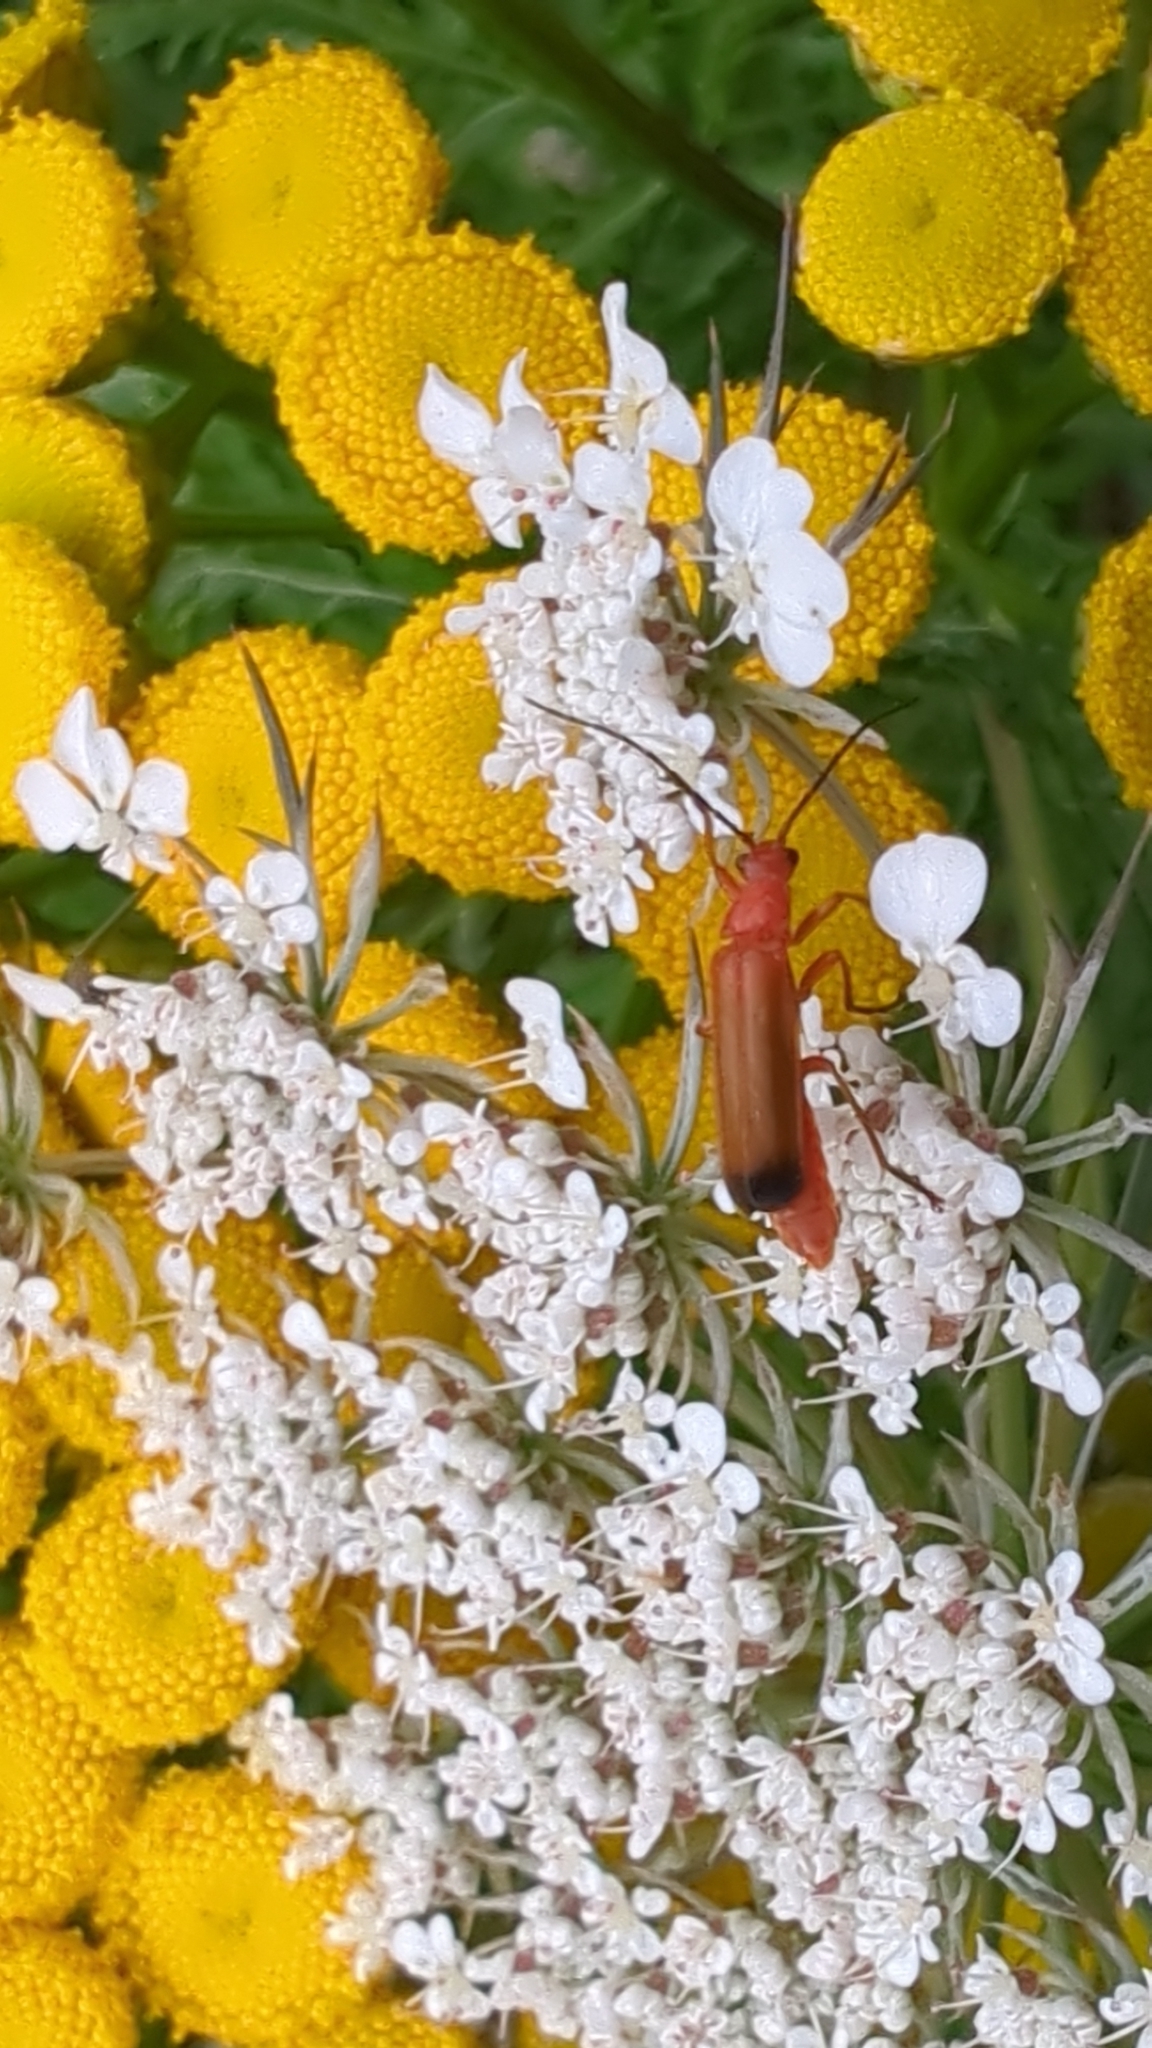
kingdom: Animalia
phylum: Arthropoda
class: Insecta
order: Coleoptera
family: Cantharidae
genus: Rhagonycha
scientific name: Rhagonycha fulva
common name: Common red soldier beetle
